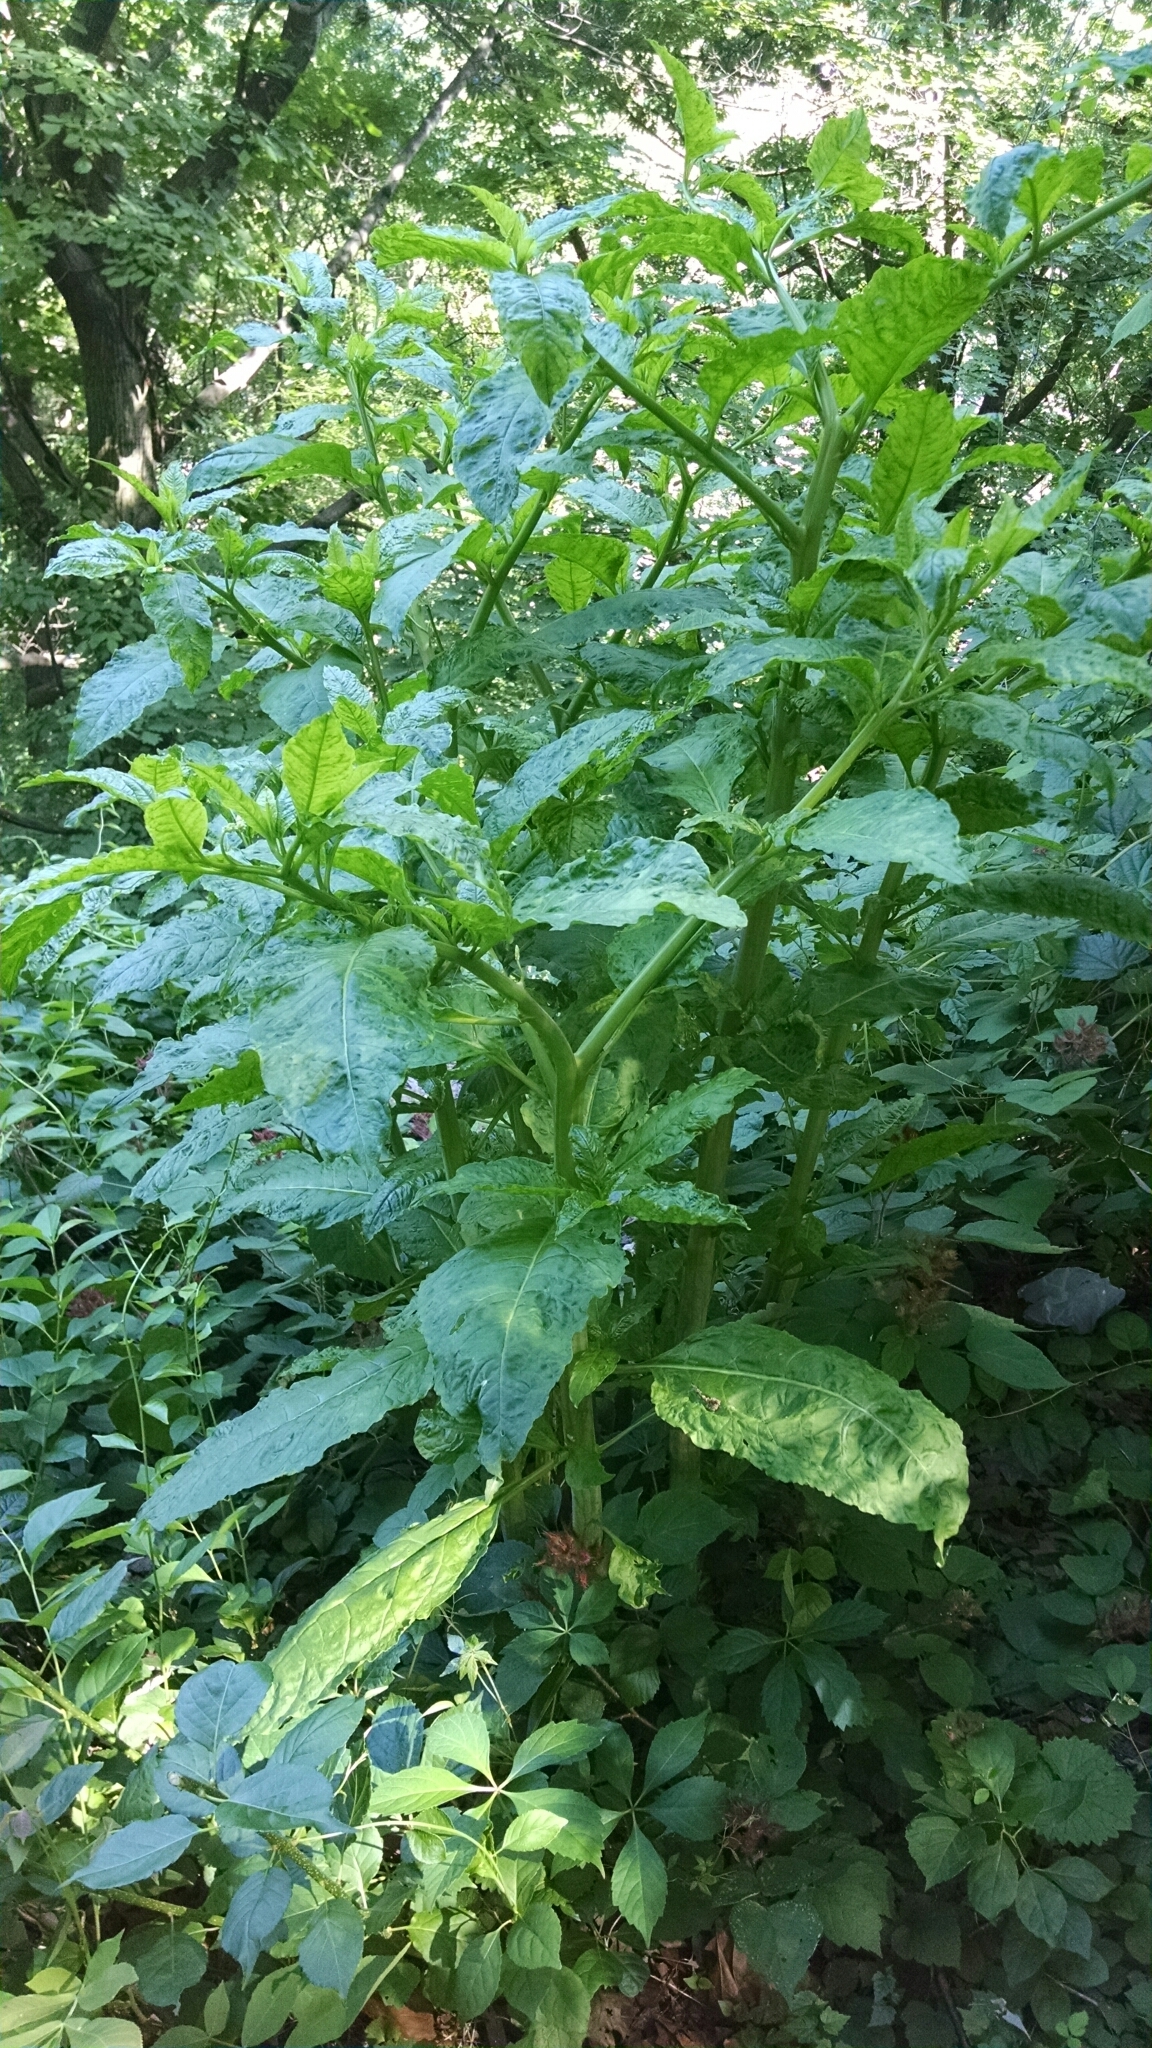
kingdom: Plantae
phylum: Tracheophyta
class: Magnoliopsida
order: Caryophyllales
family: Phytolaccaceae
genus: Phytolacca
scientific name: Phytolacca americana
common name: American pokeweed
